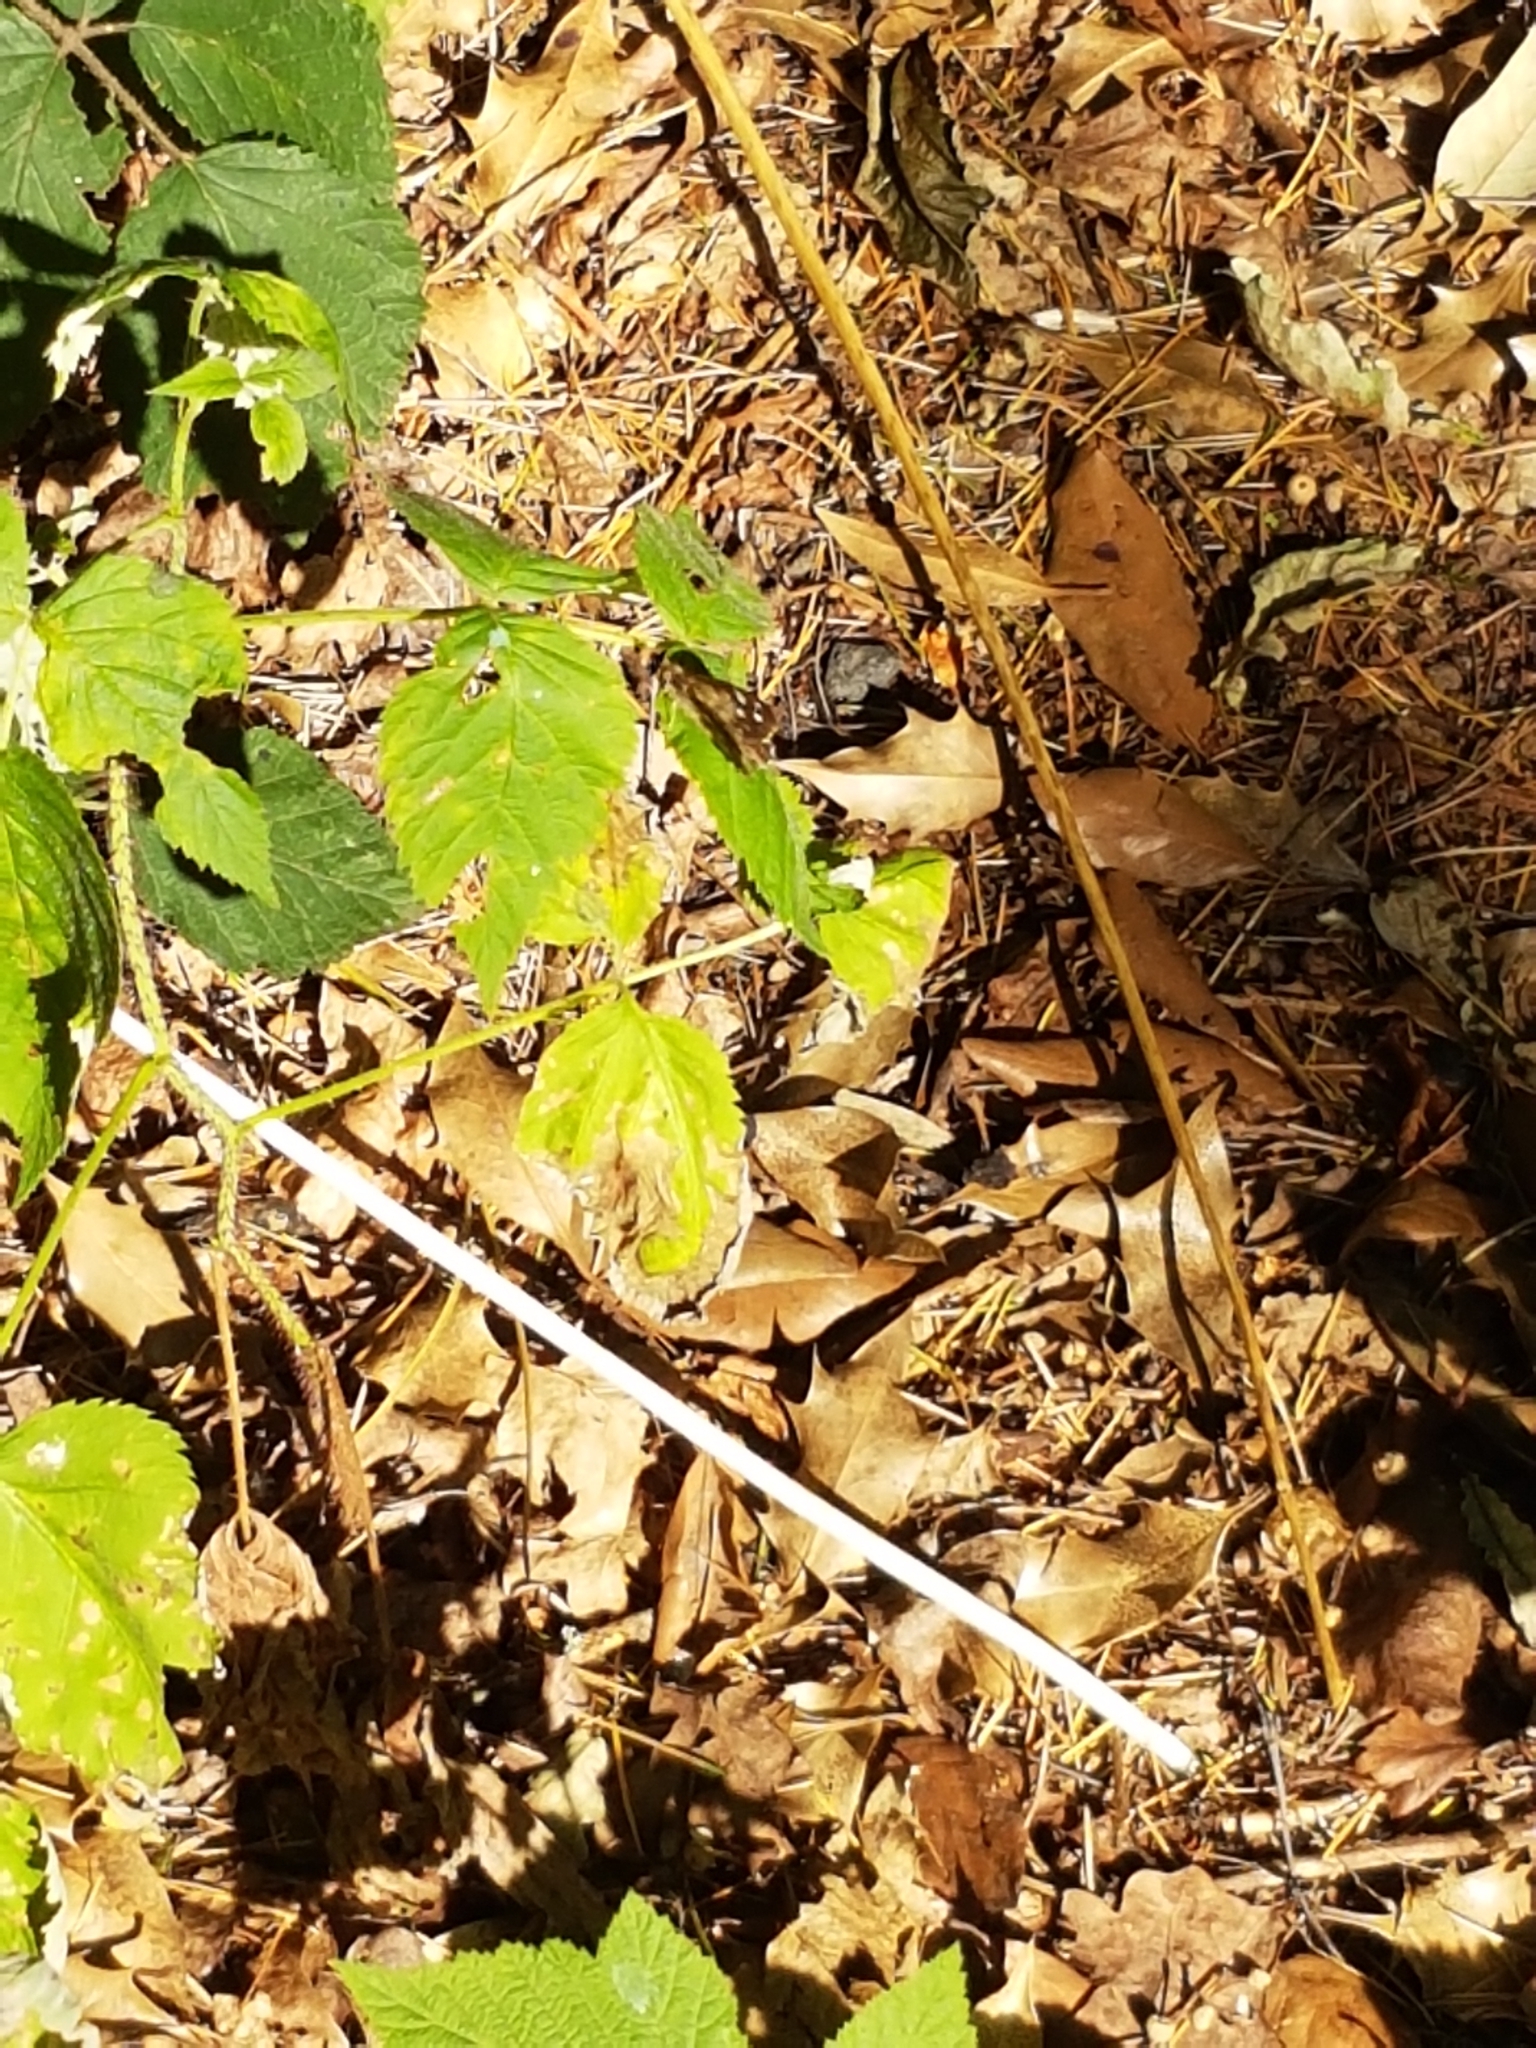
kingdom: Animalia
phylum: Arthropoda
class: Insecta
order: Lepidoptera
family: Nymphalidae
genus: Pararge
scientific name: Pararge aegeria
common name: Speckled wood
